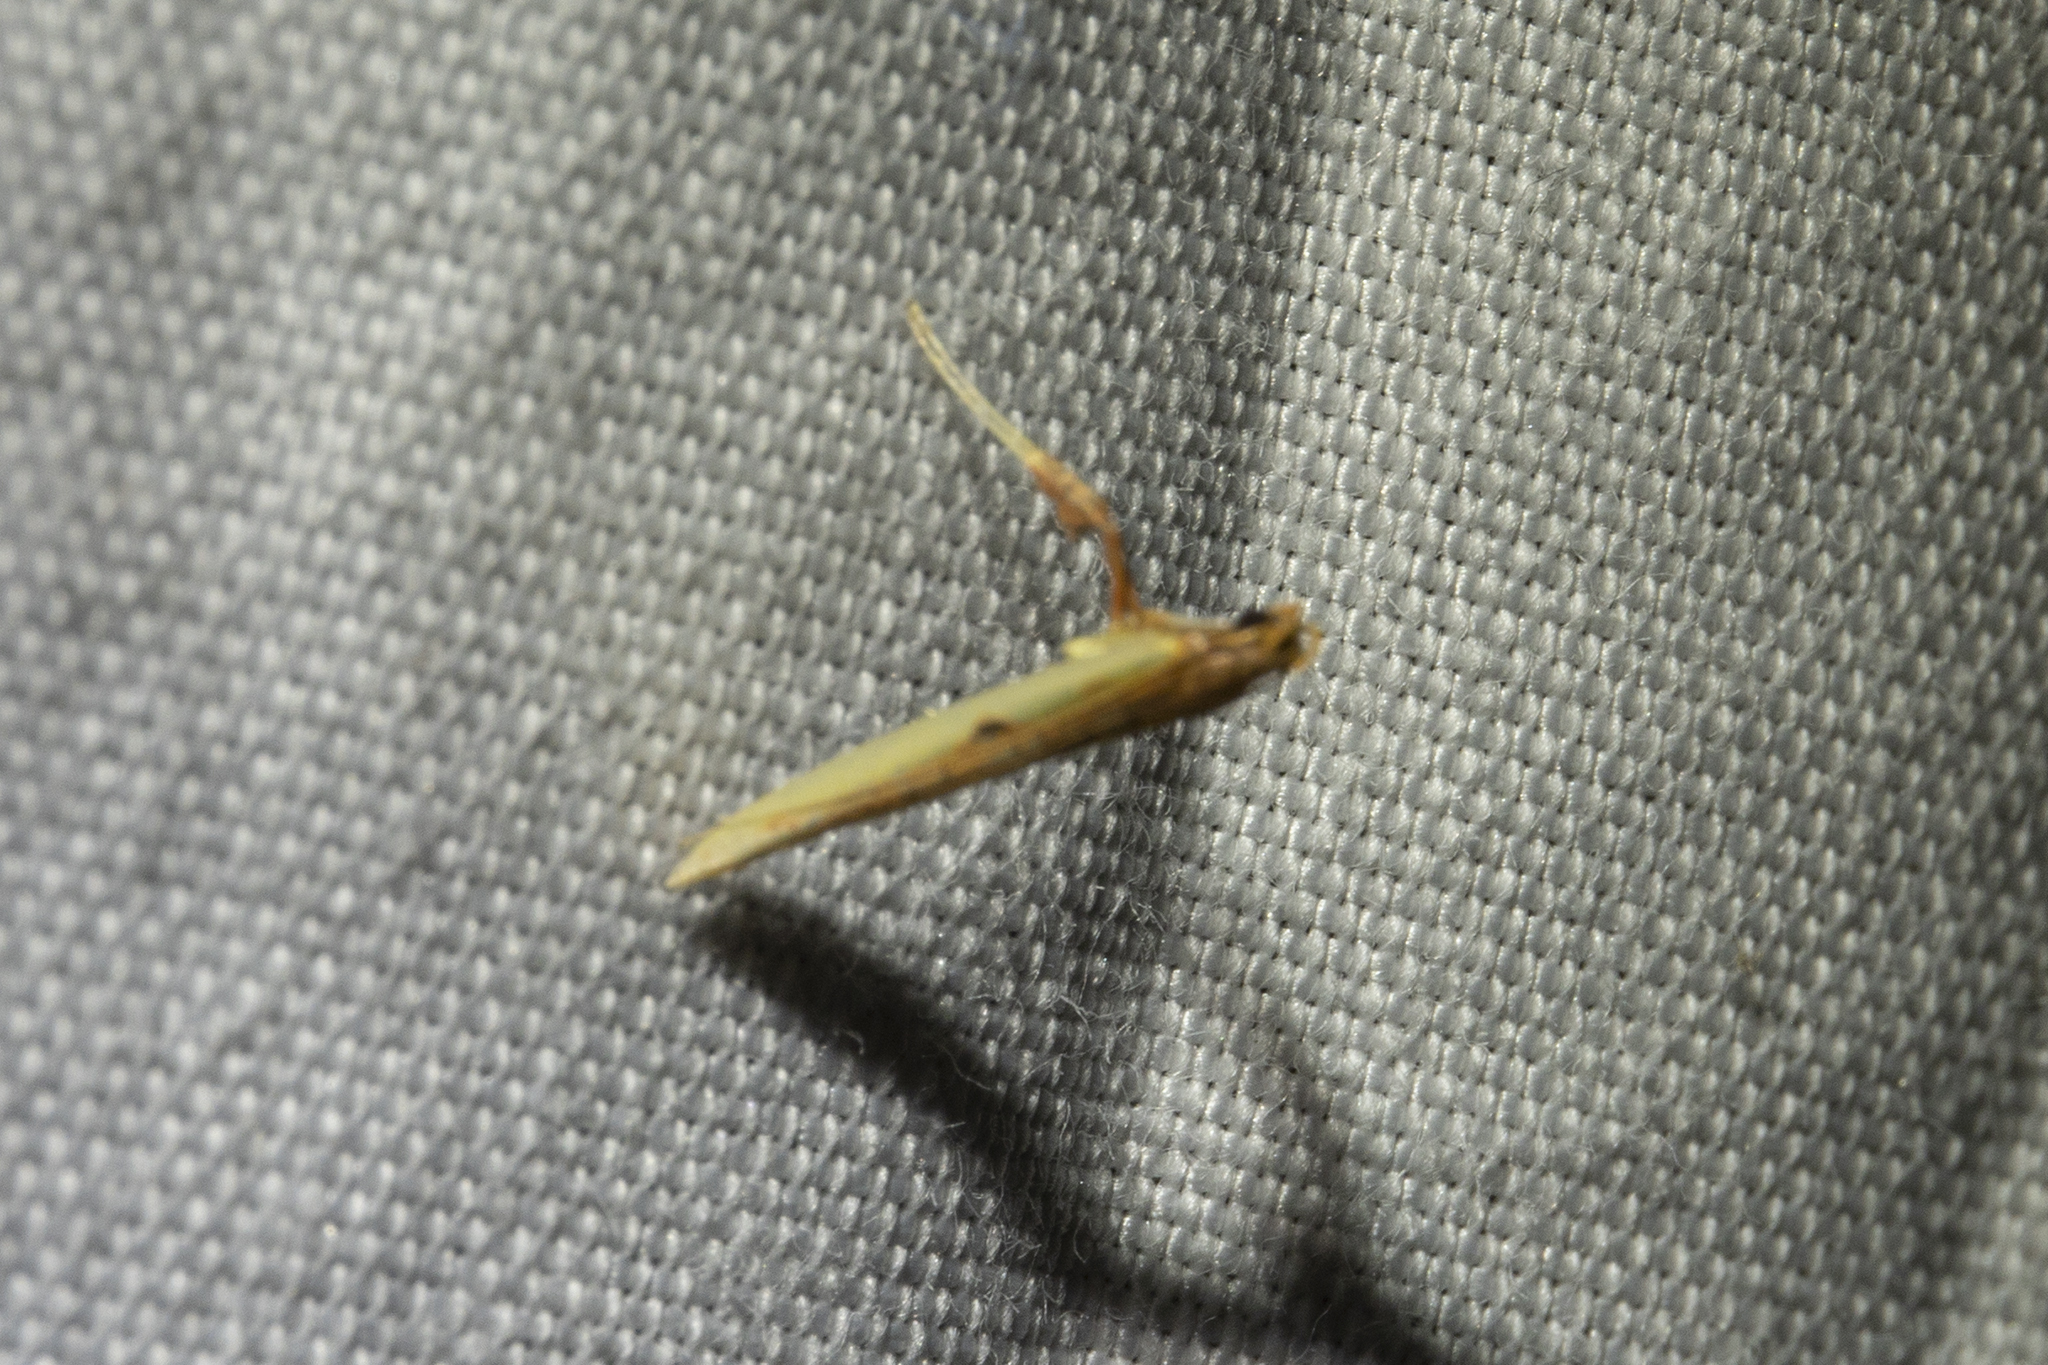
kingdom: Animalia
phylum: Arthropoda
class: Insecta
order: Lepidoptera
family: Gracillariidae
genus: Caloptilia
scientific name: Caloptilia chrysitis
